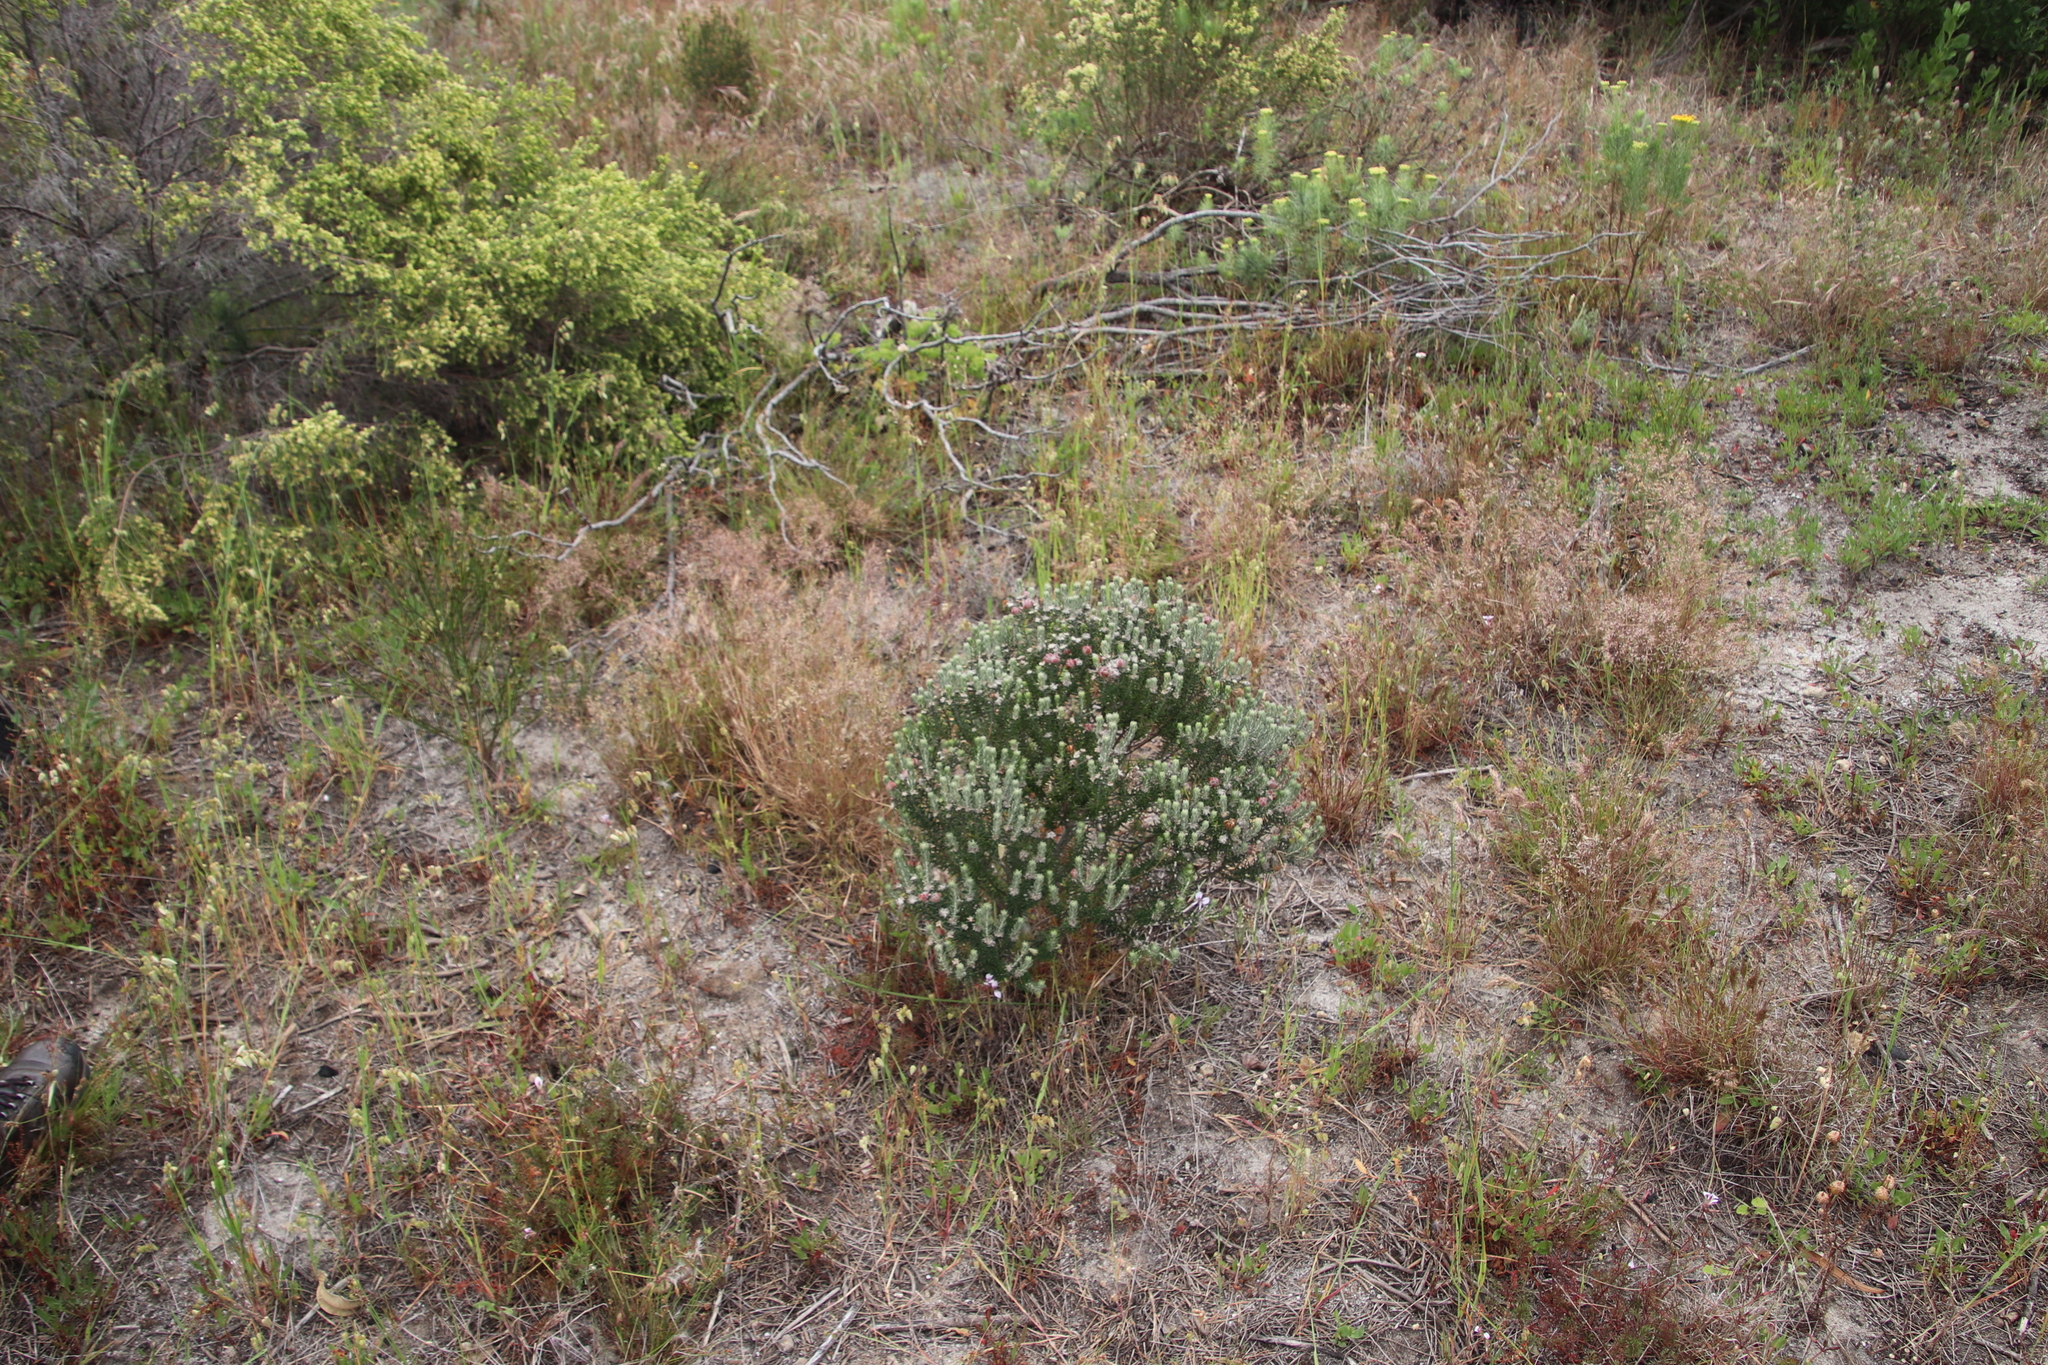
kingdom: Plantae
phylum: Tracheophyta
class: Magnoliopsida
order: Rosales
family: Rhamnaceae
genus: Trichocephalus
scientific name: Trichocephalus stipularis
